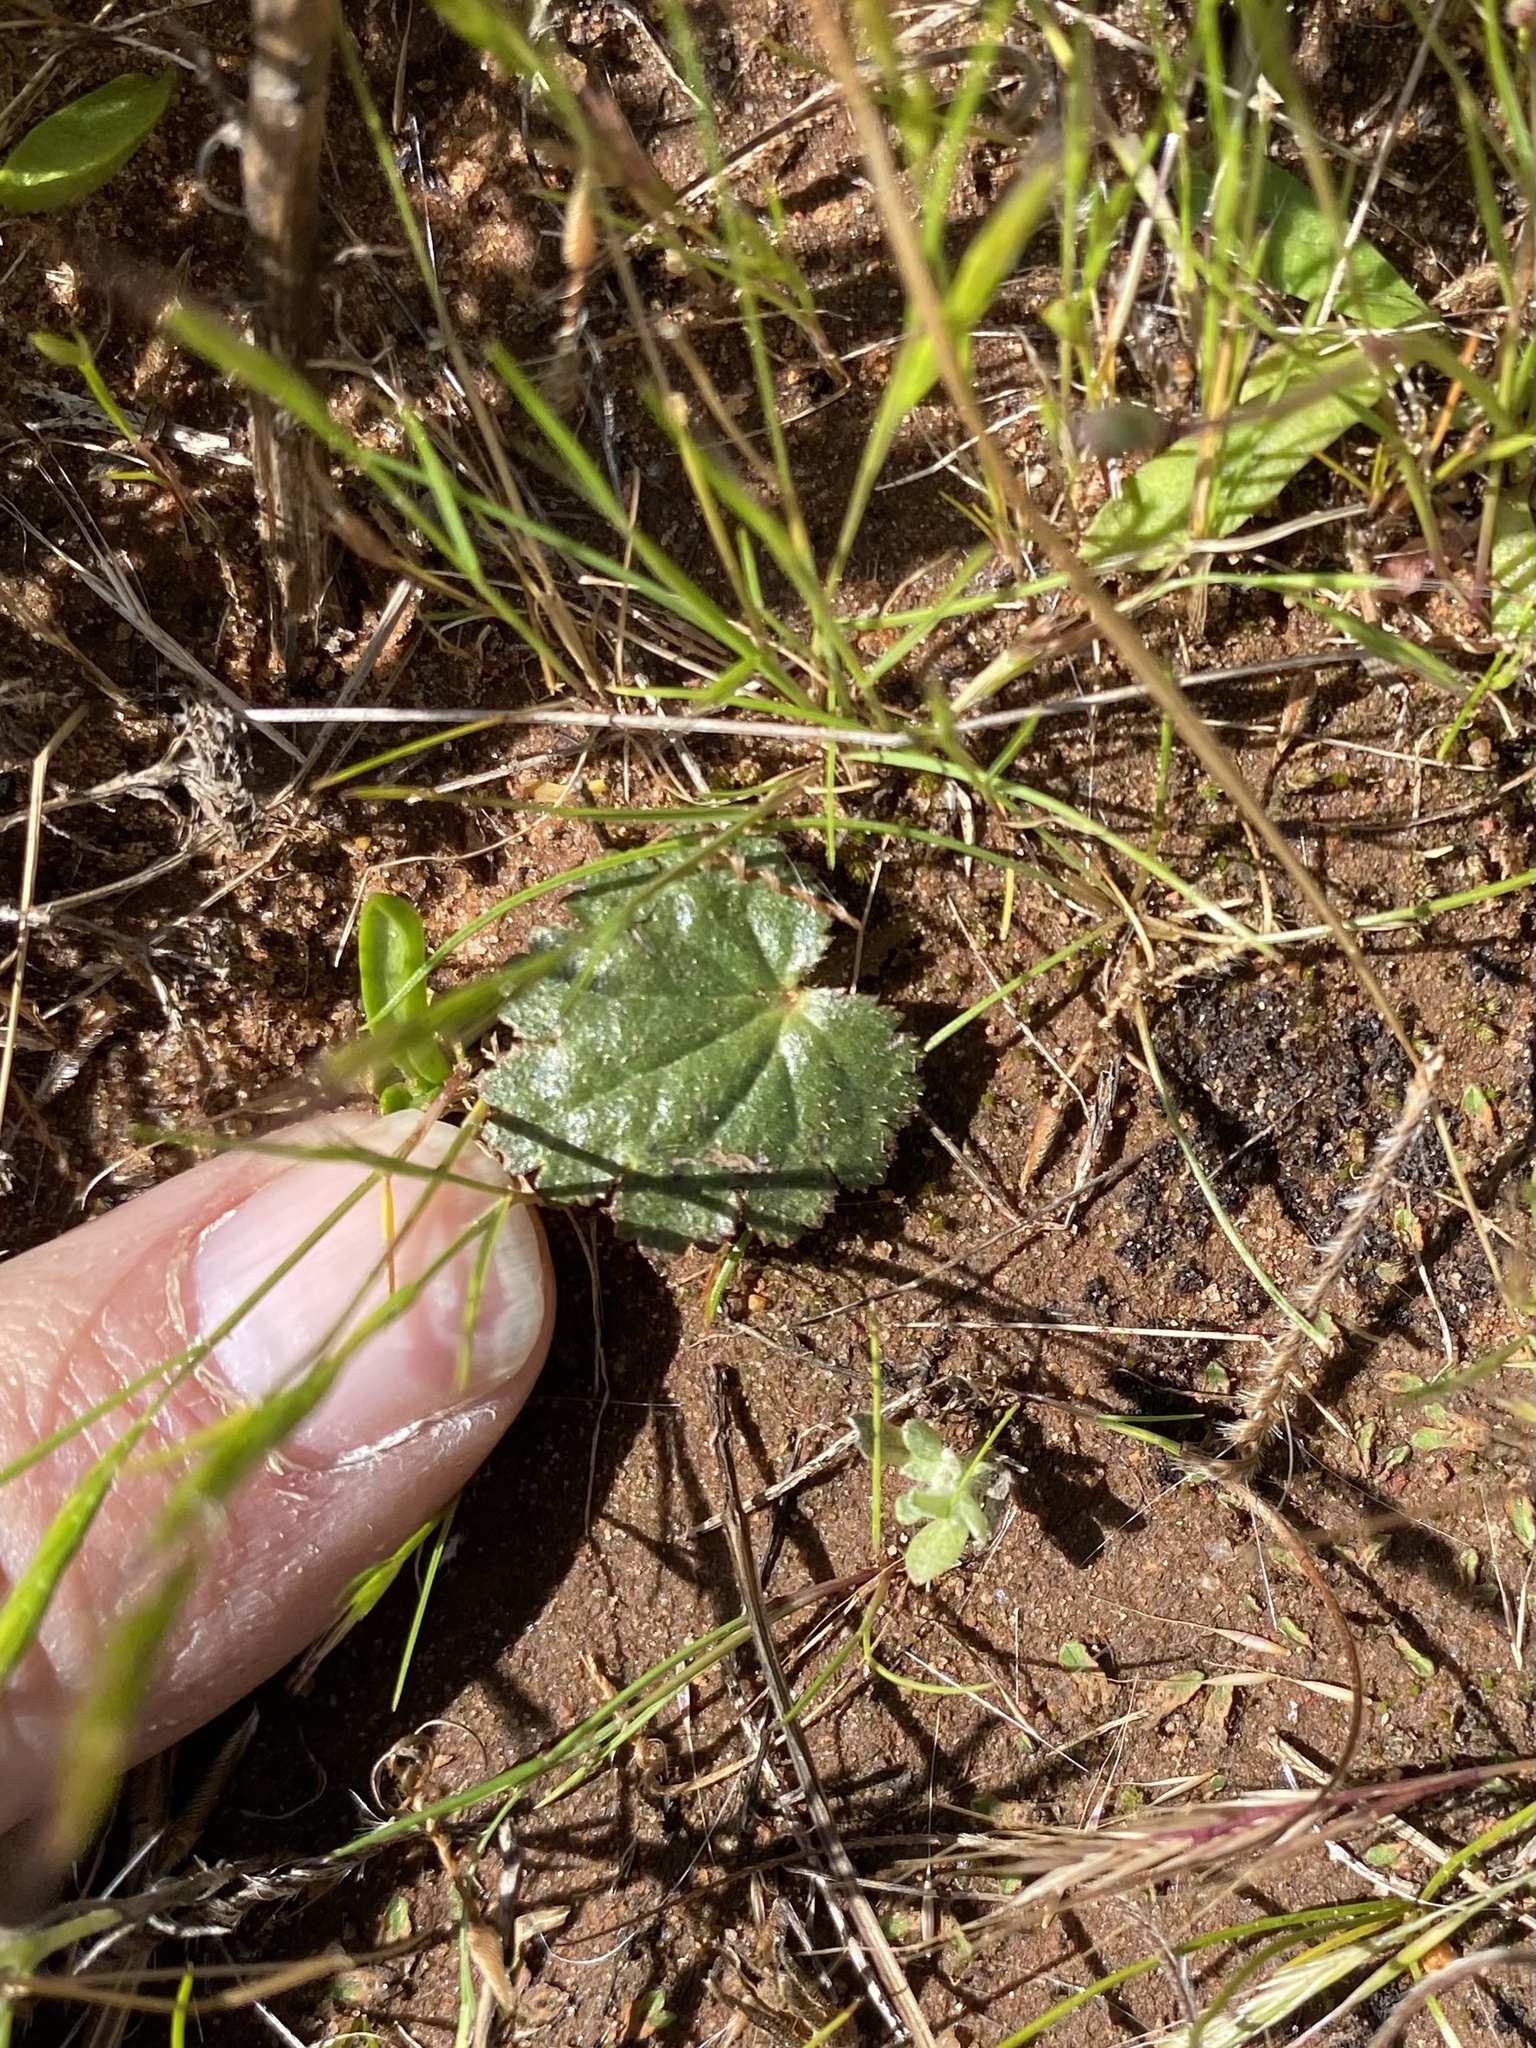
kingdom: Plantae
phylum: Tracheophyta
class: Magnoliopsida
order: Saxifragales
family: Saxifragaceae
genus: Jepsonia
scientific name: Jepsonia parryi
